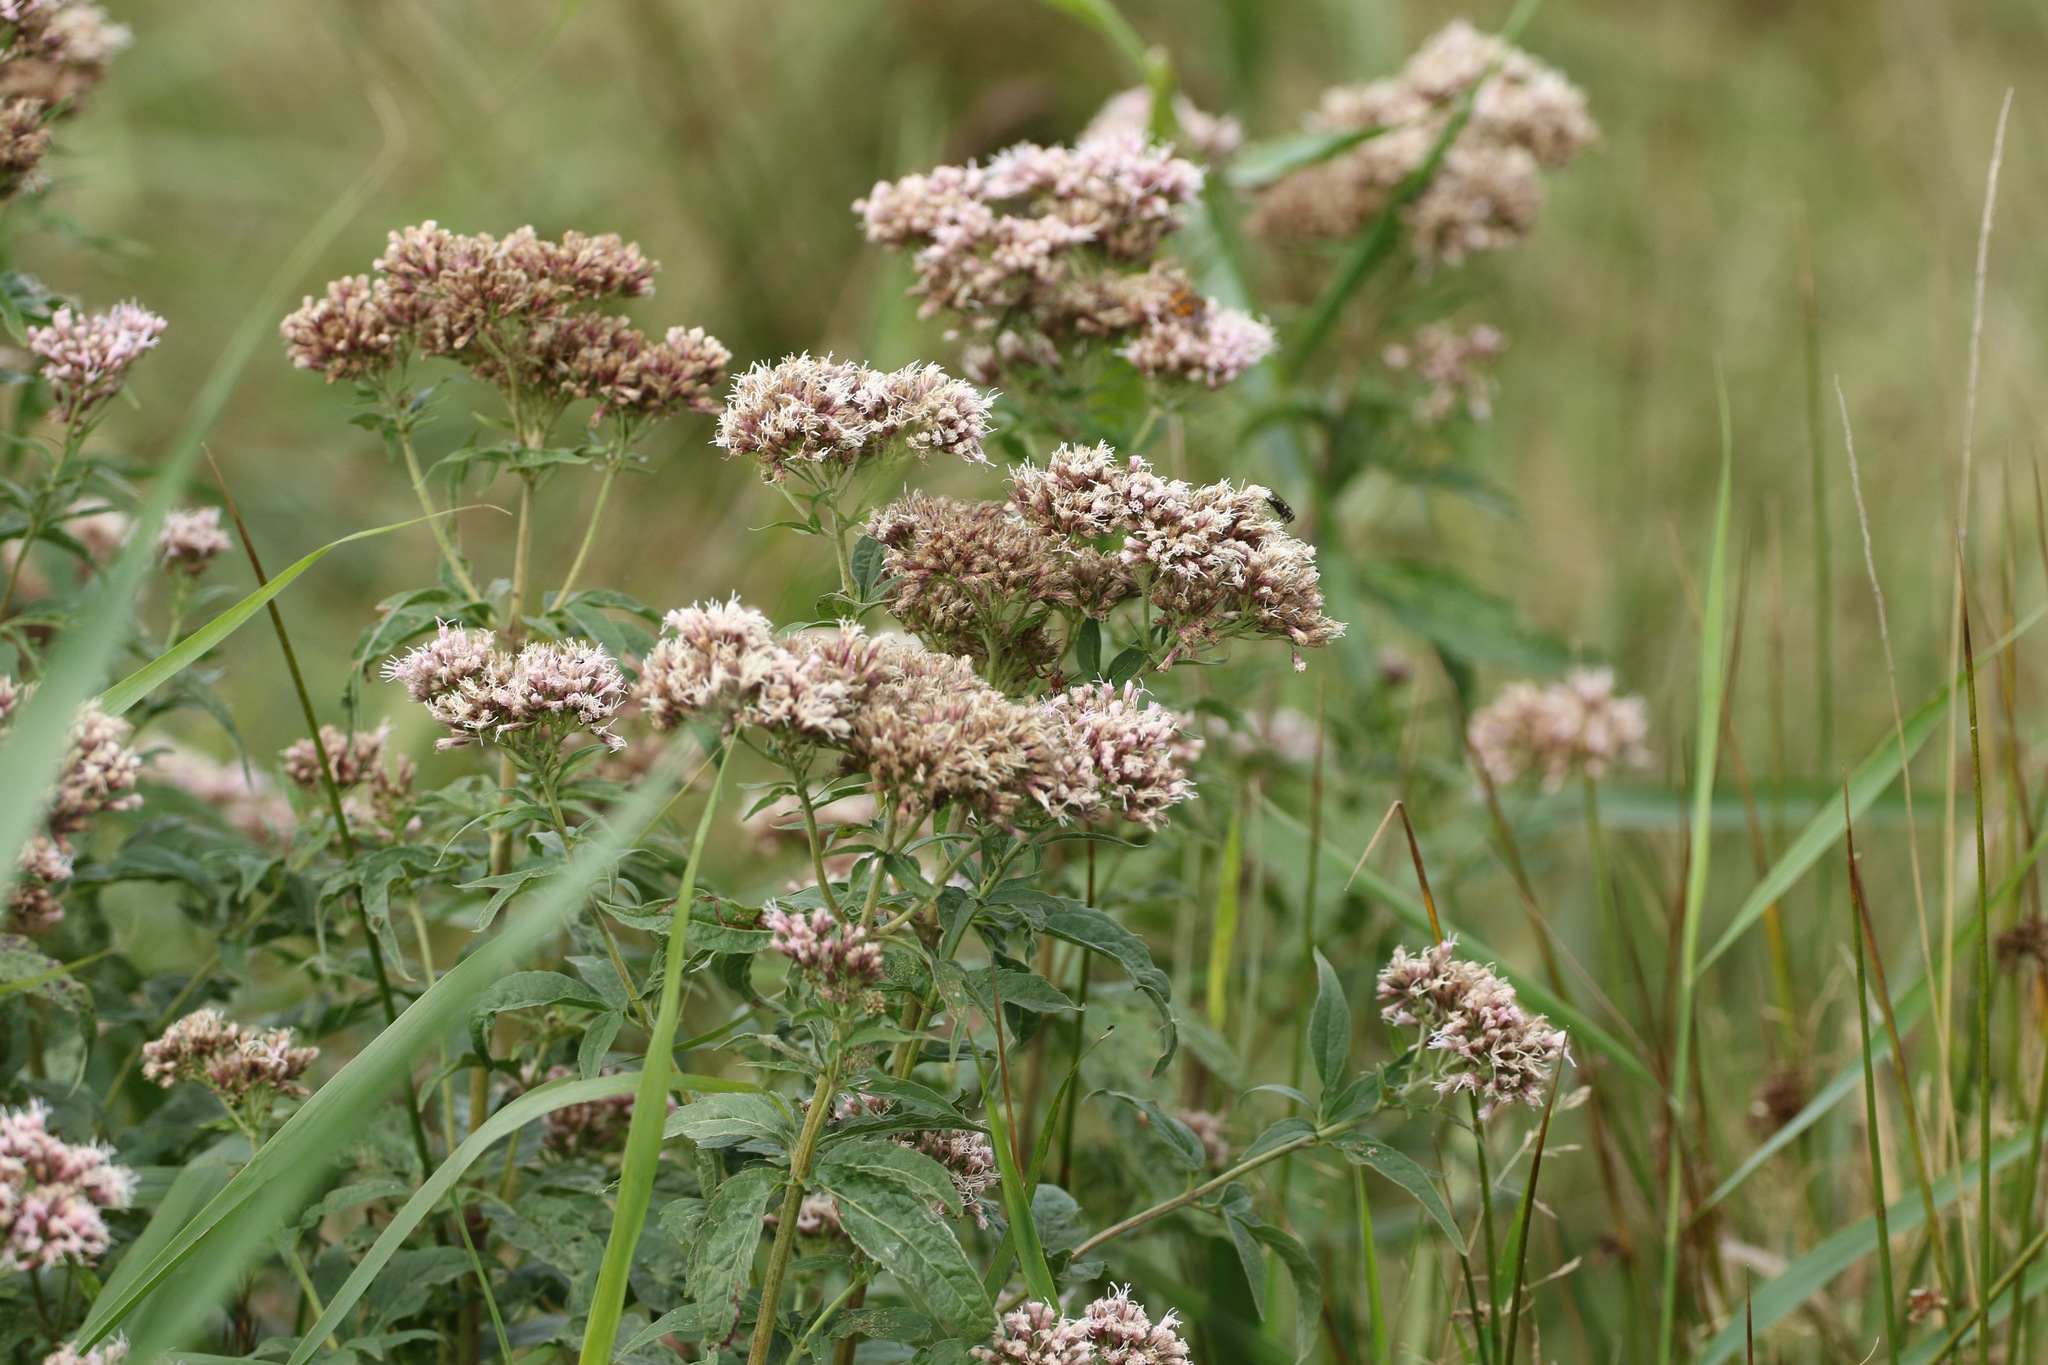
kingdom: Plantae
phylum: Tracheophyta
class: Magnoliopsida
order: Asterales
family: Asteraceae
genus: Eupatorium
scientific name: Eupatorium cannabinum
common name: Hemp-agrimony
